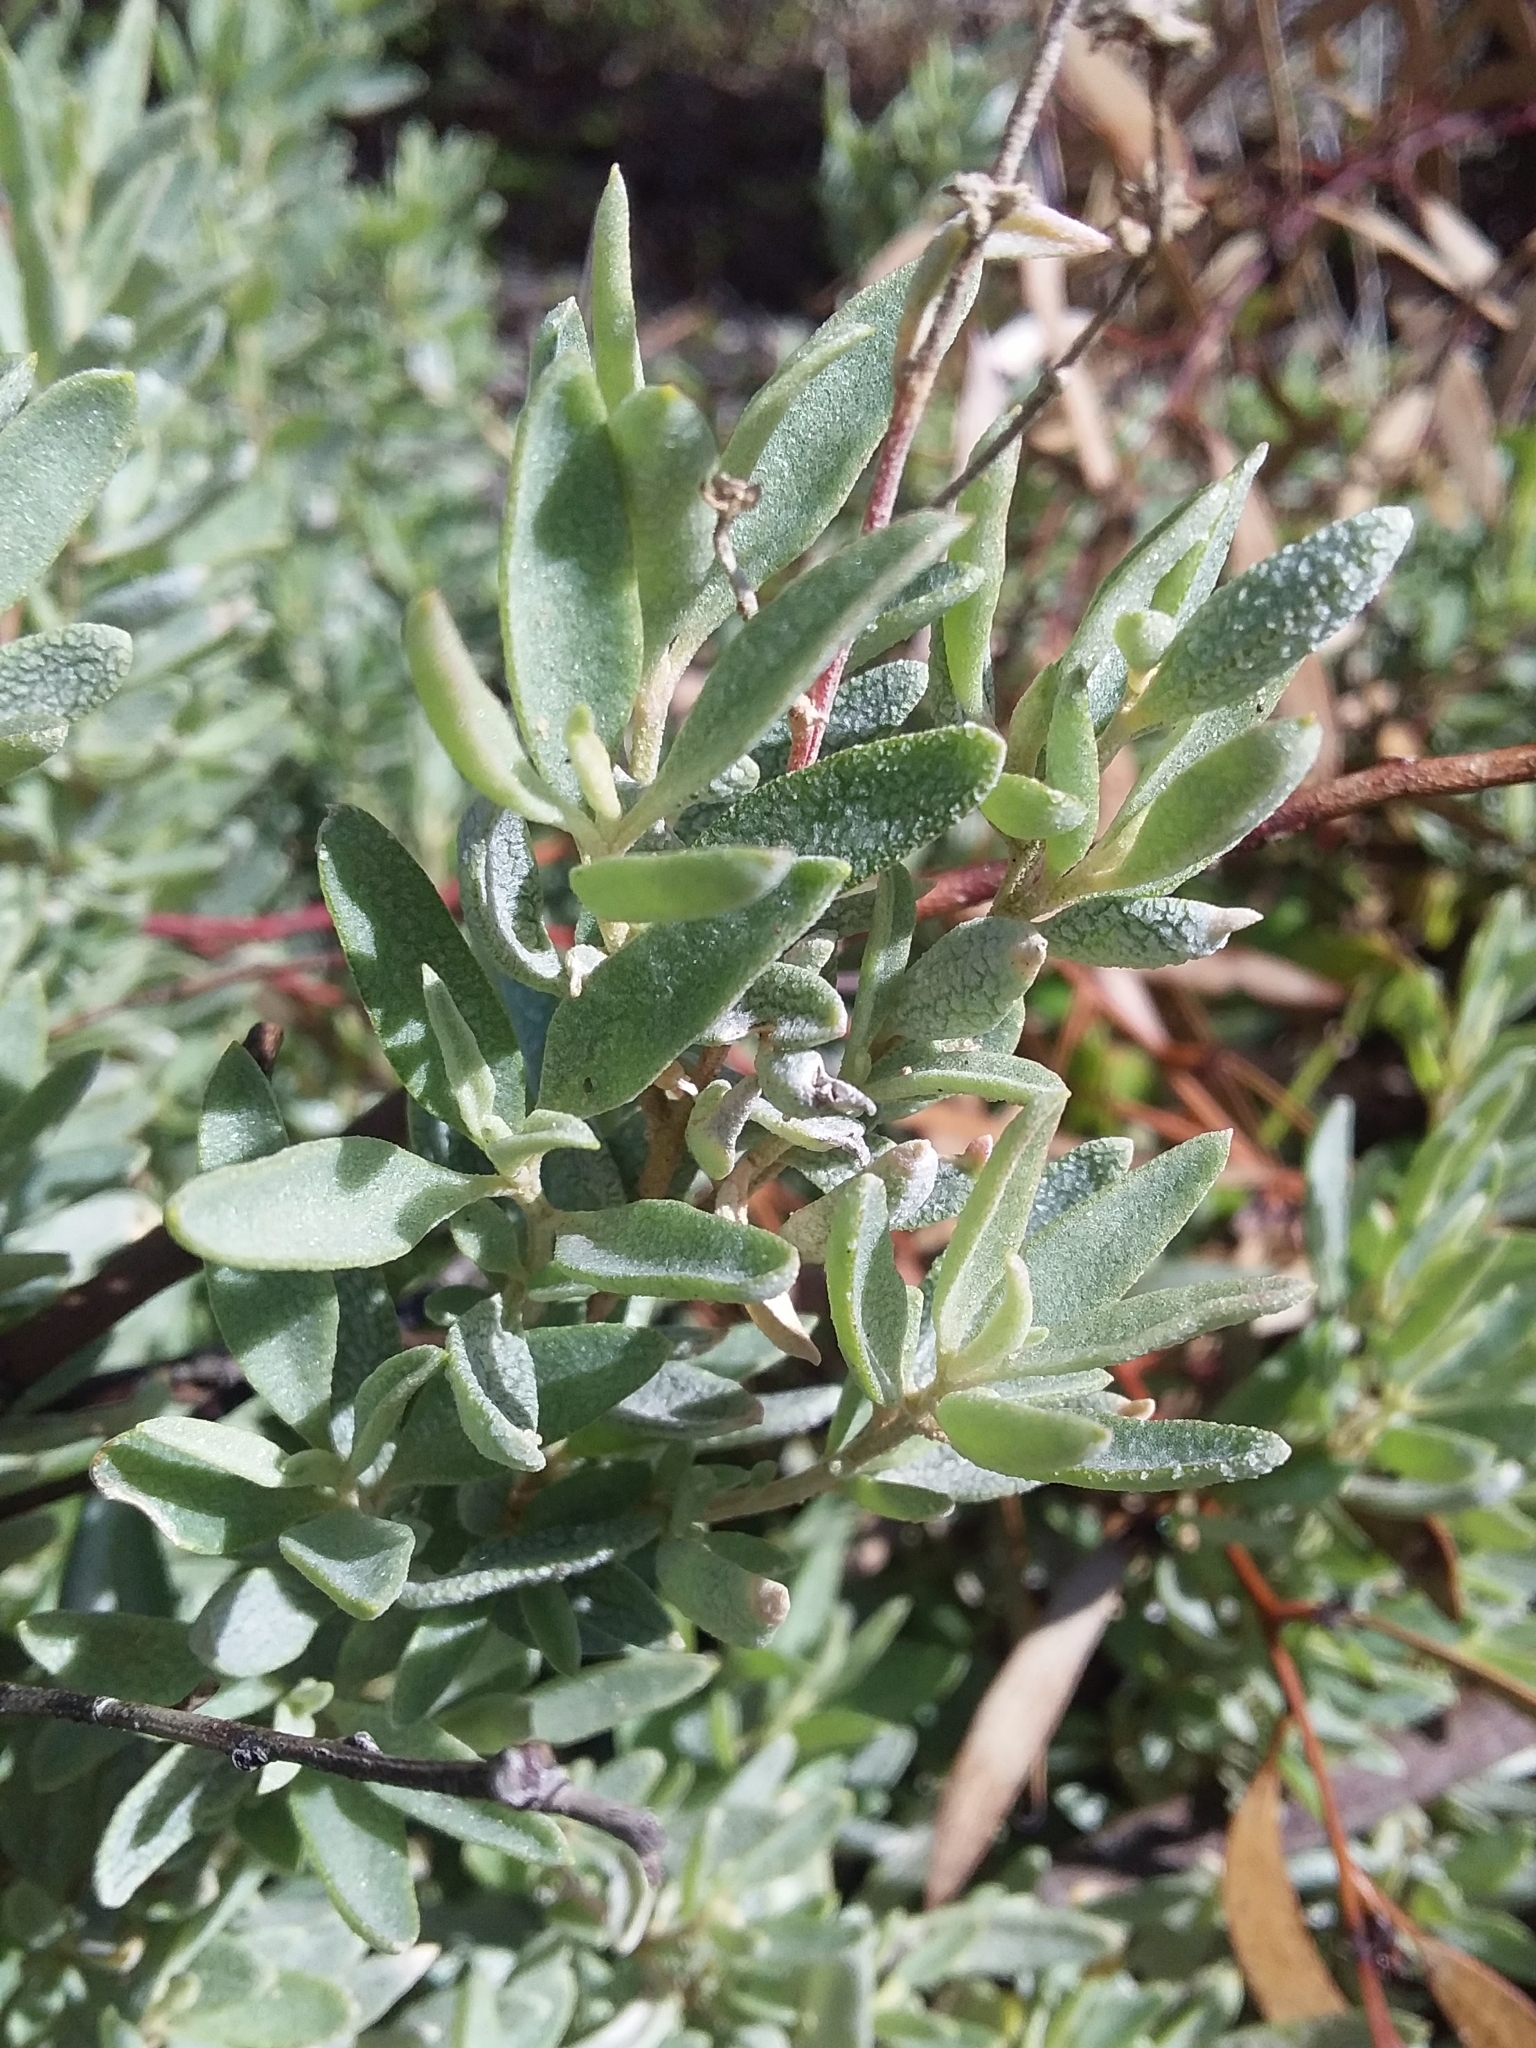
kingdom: Plantae
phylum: Tracheophyta
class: Magnoliopsida
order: Caryophyllales
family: Amaranthaceae
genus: Atriplex
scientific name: Atriplex paludosa
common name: Marsh saltbush
